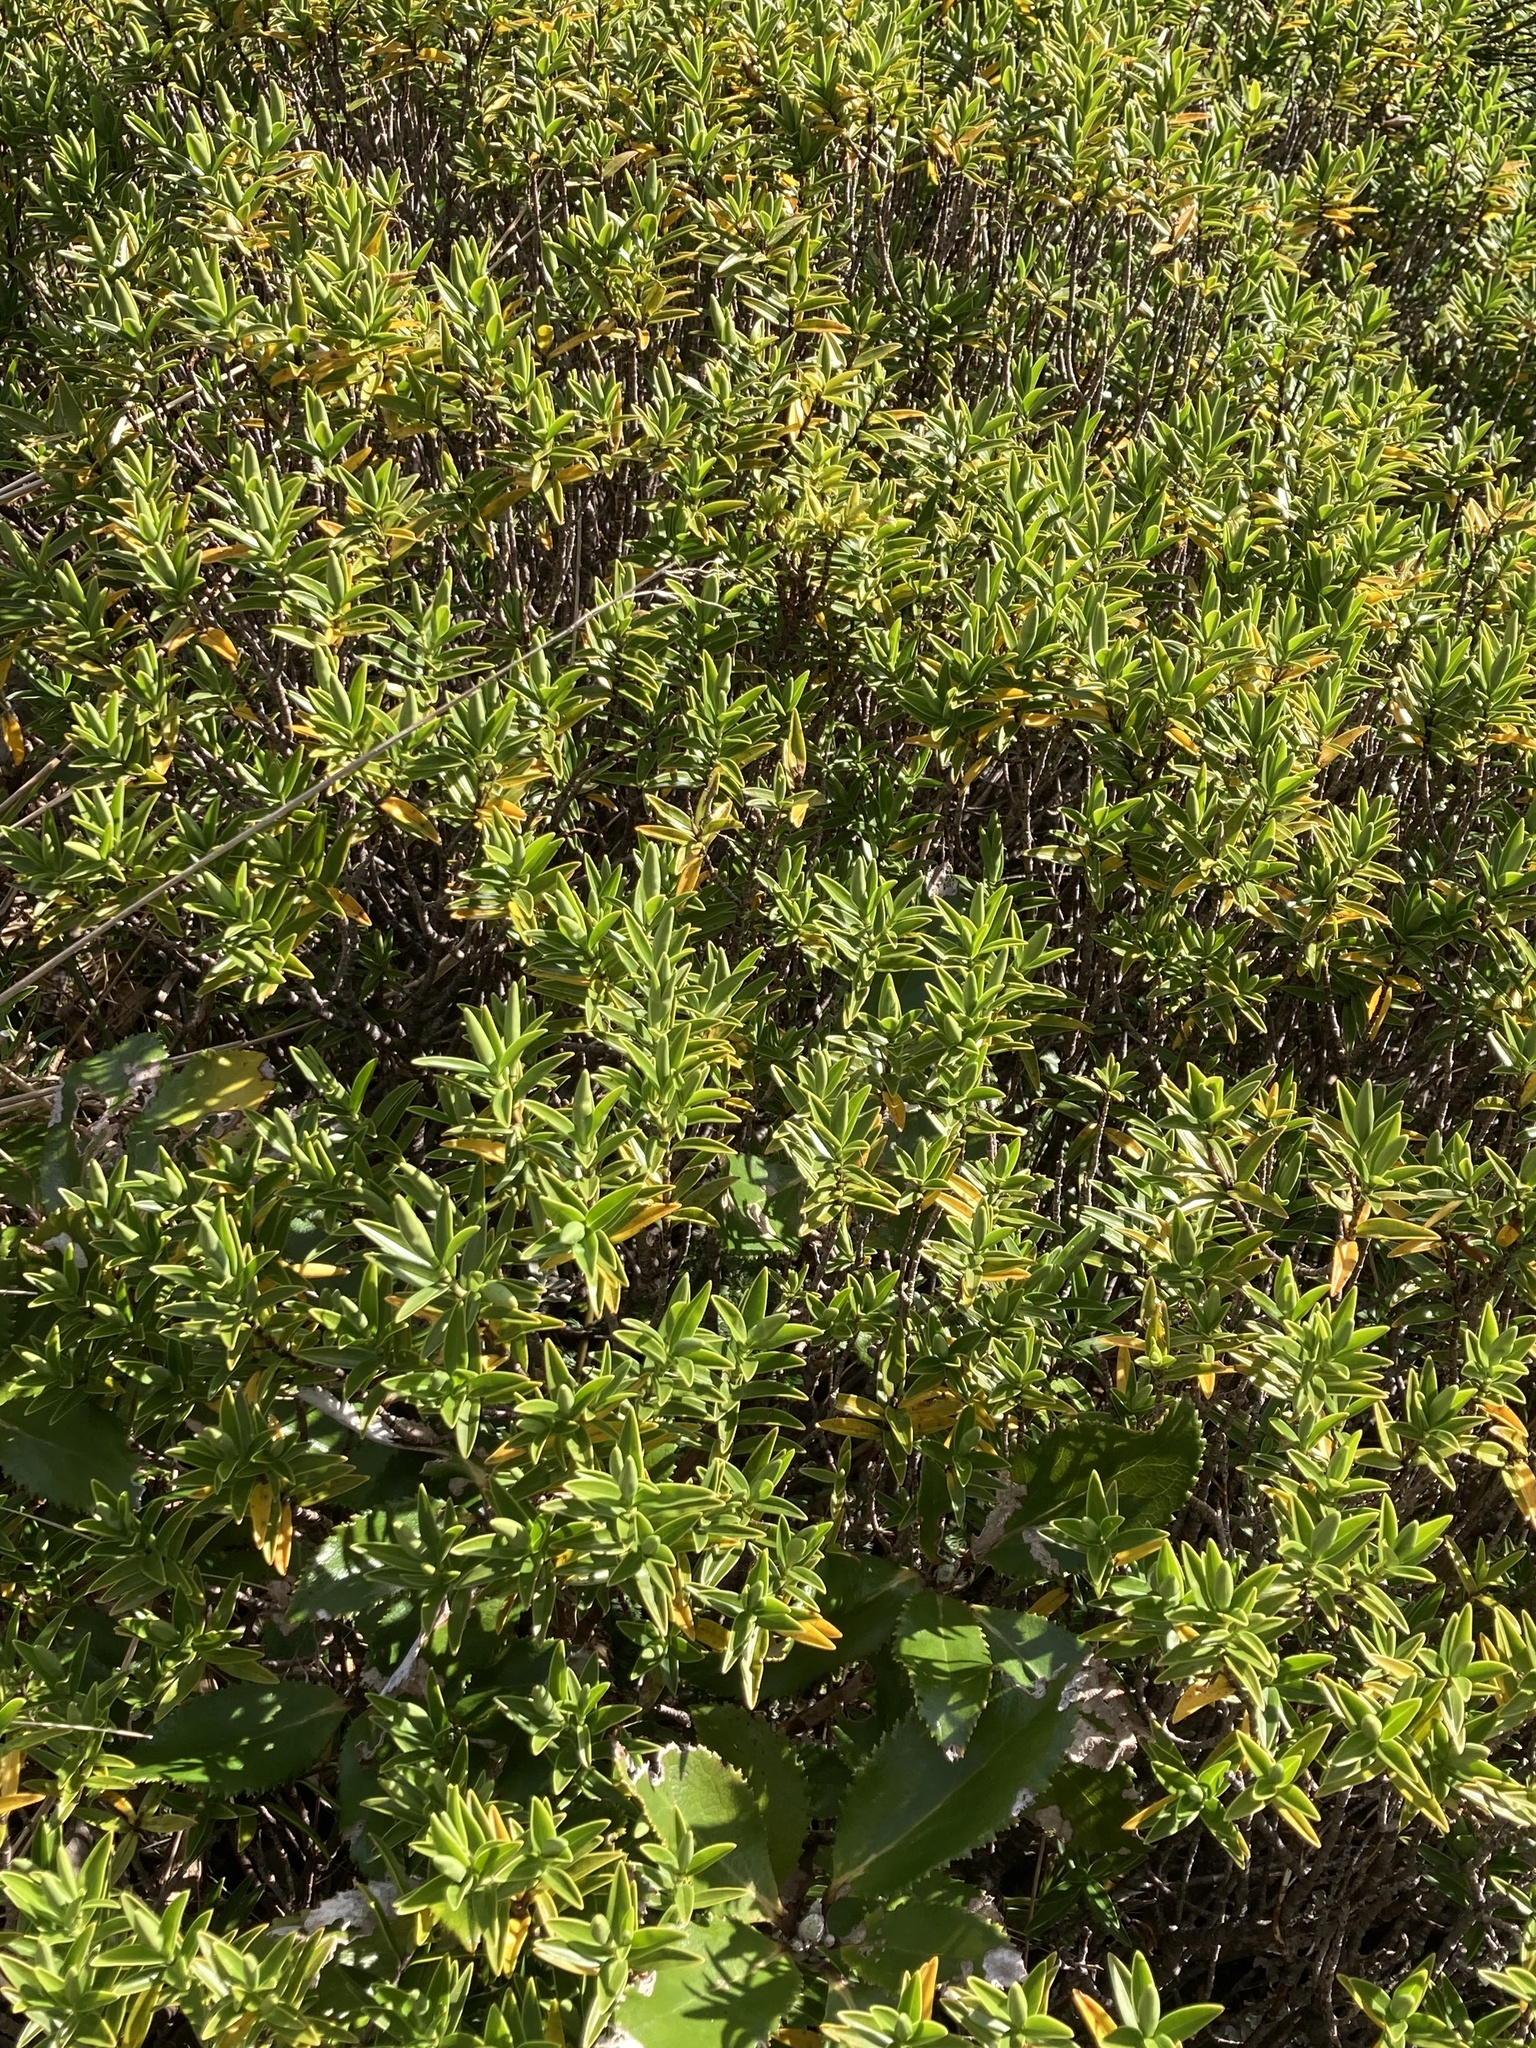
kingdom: Plantae
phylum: Tracheophyta
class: Magnoliopsida
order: Lamiales
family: Plantaginaceae
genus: Veronica
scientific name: Veronica subalpina
